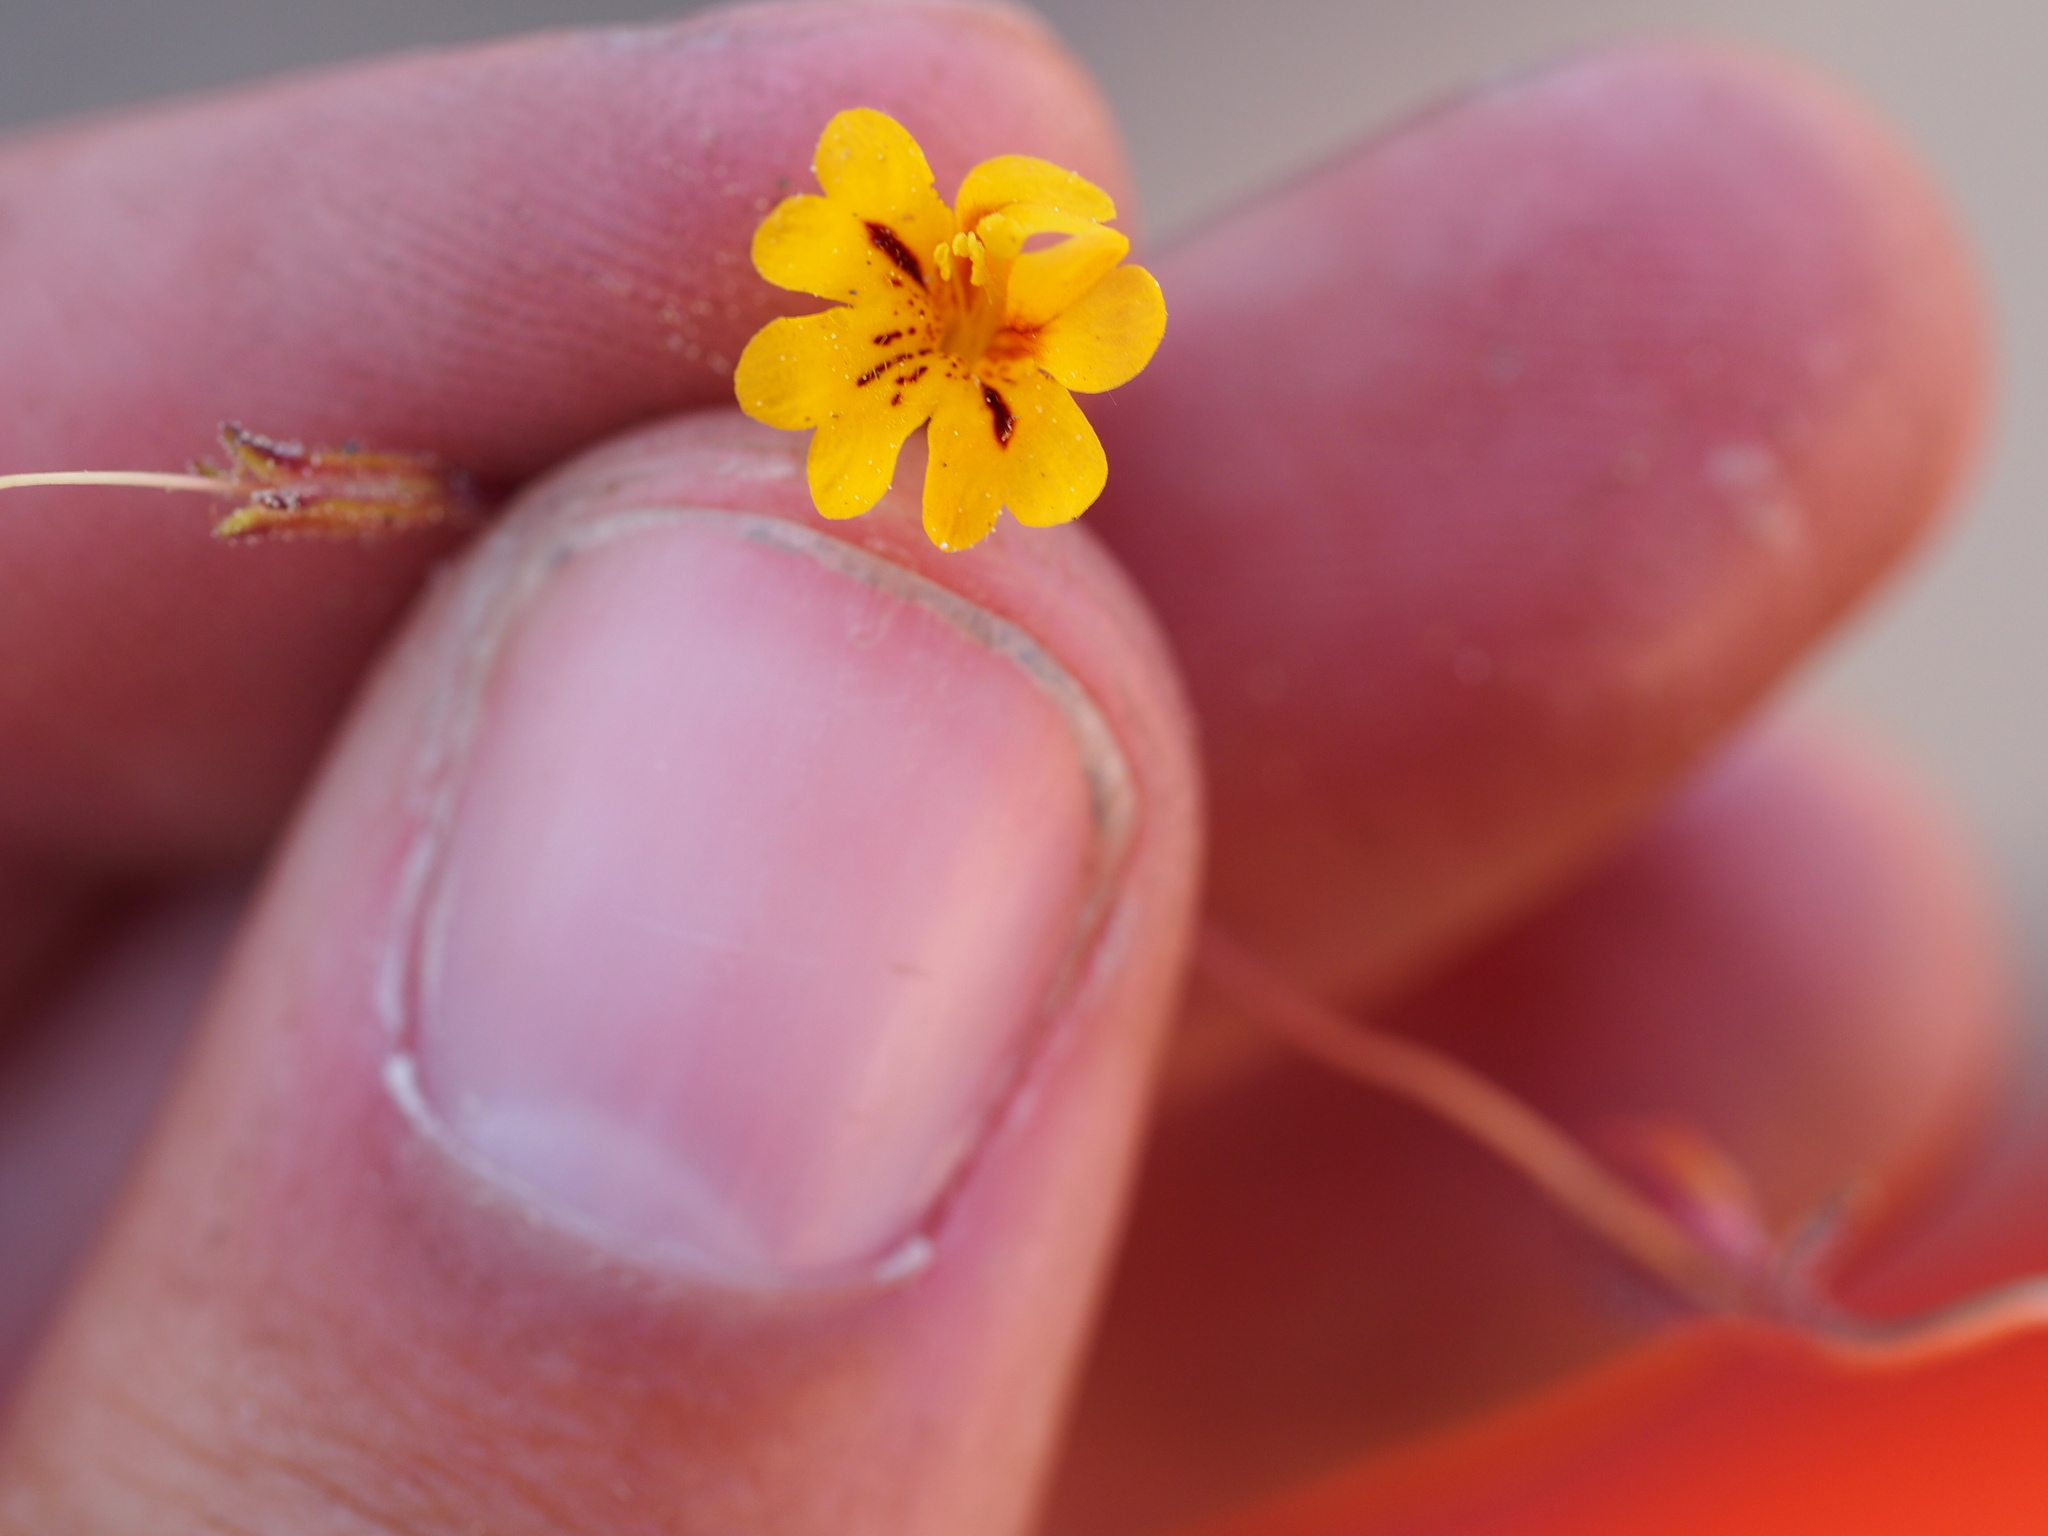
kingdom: Plantae
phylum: Tracheophyta
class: Magnoliopsida
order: Lamiales
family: Phrymaceae
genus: Erythranthe
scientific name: Erythranthe barbata
